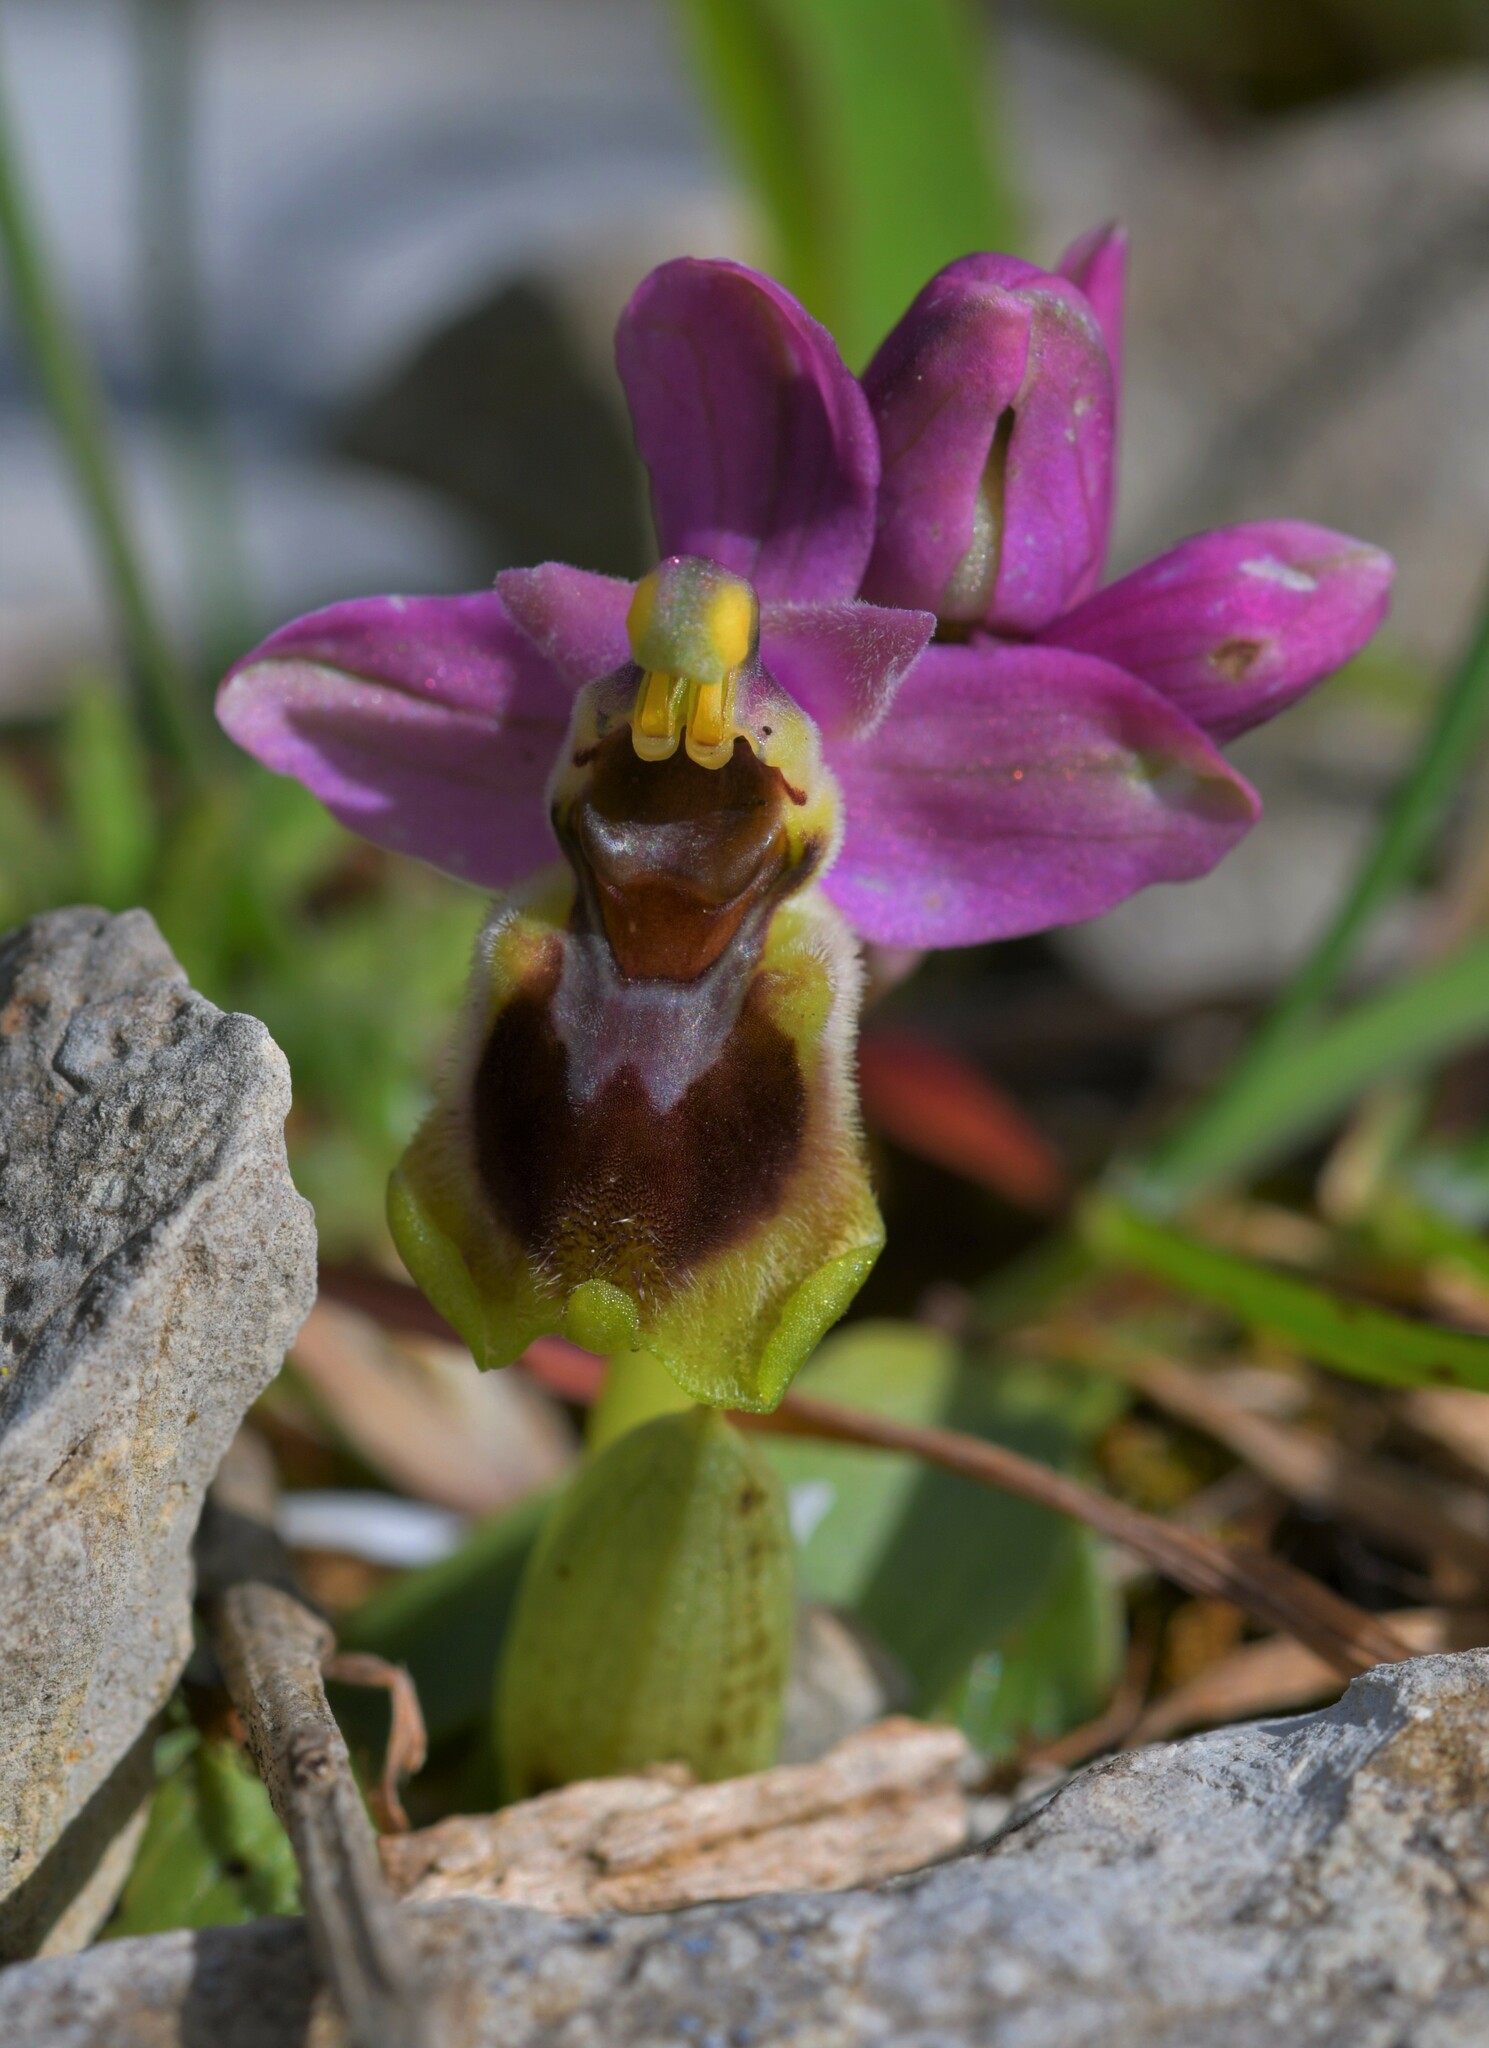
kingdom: Plantae
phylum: Tracheophyta
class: Liliopsida
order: Asparagales
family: Orchidaceae
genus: Ophrys
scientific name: Ophrys tenthredinifera
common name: Sawfly orchid
